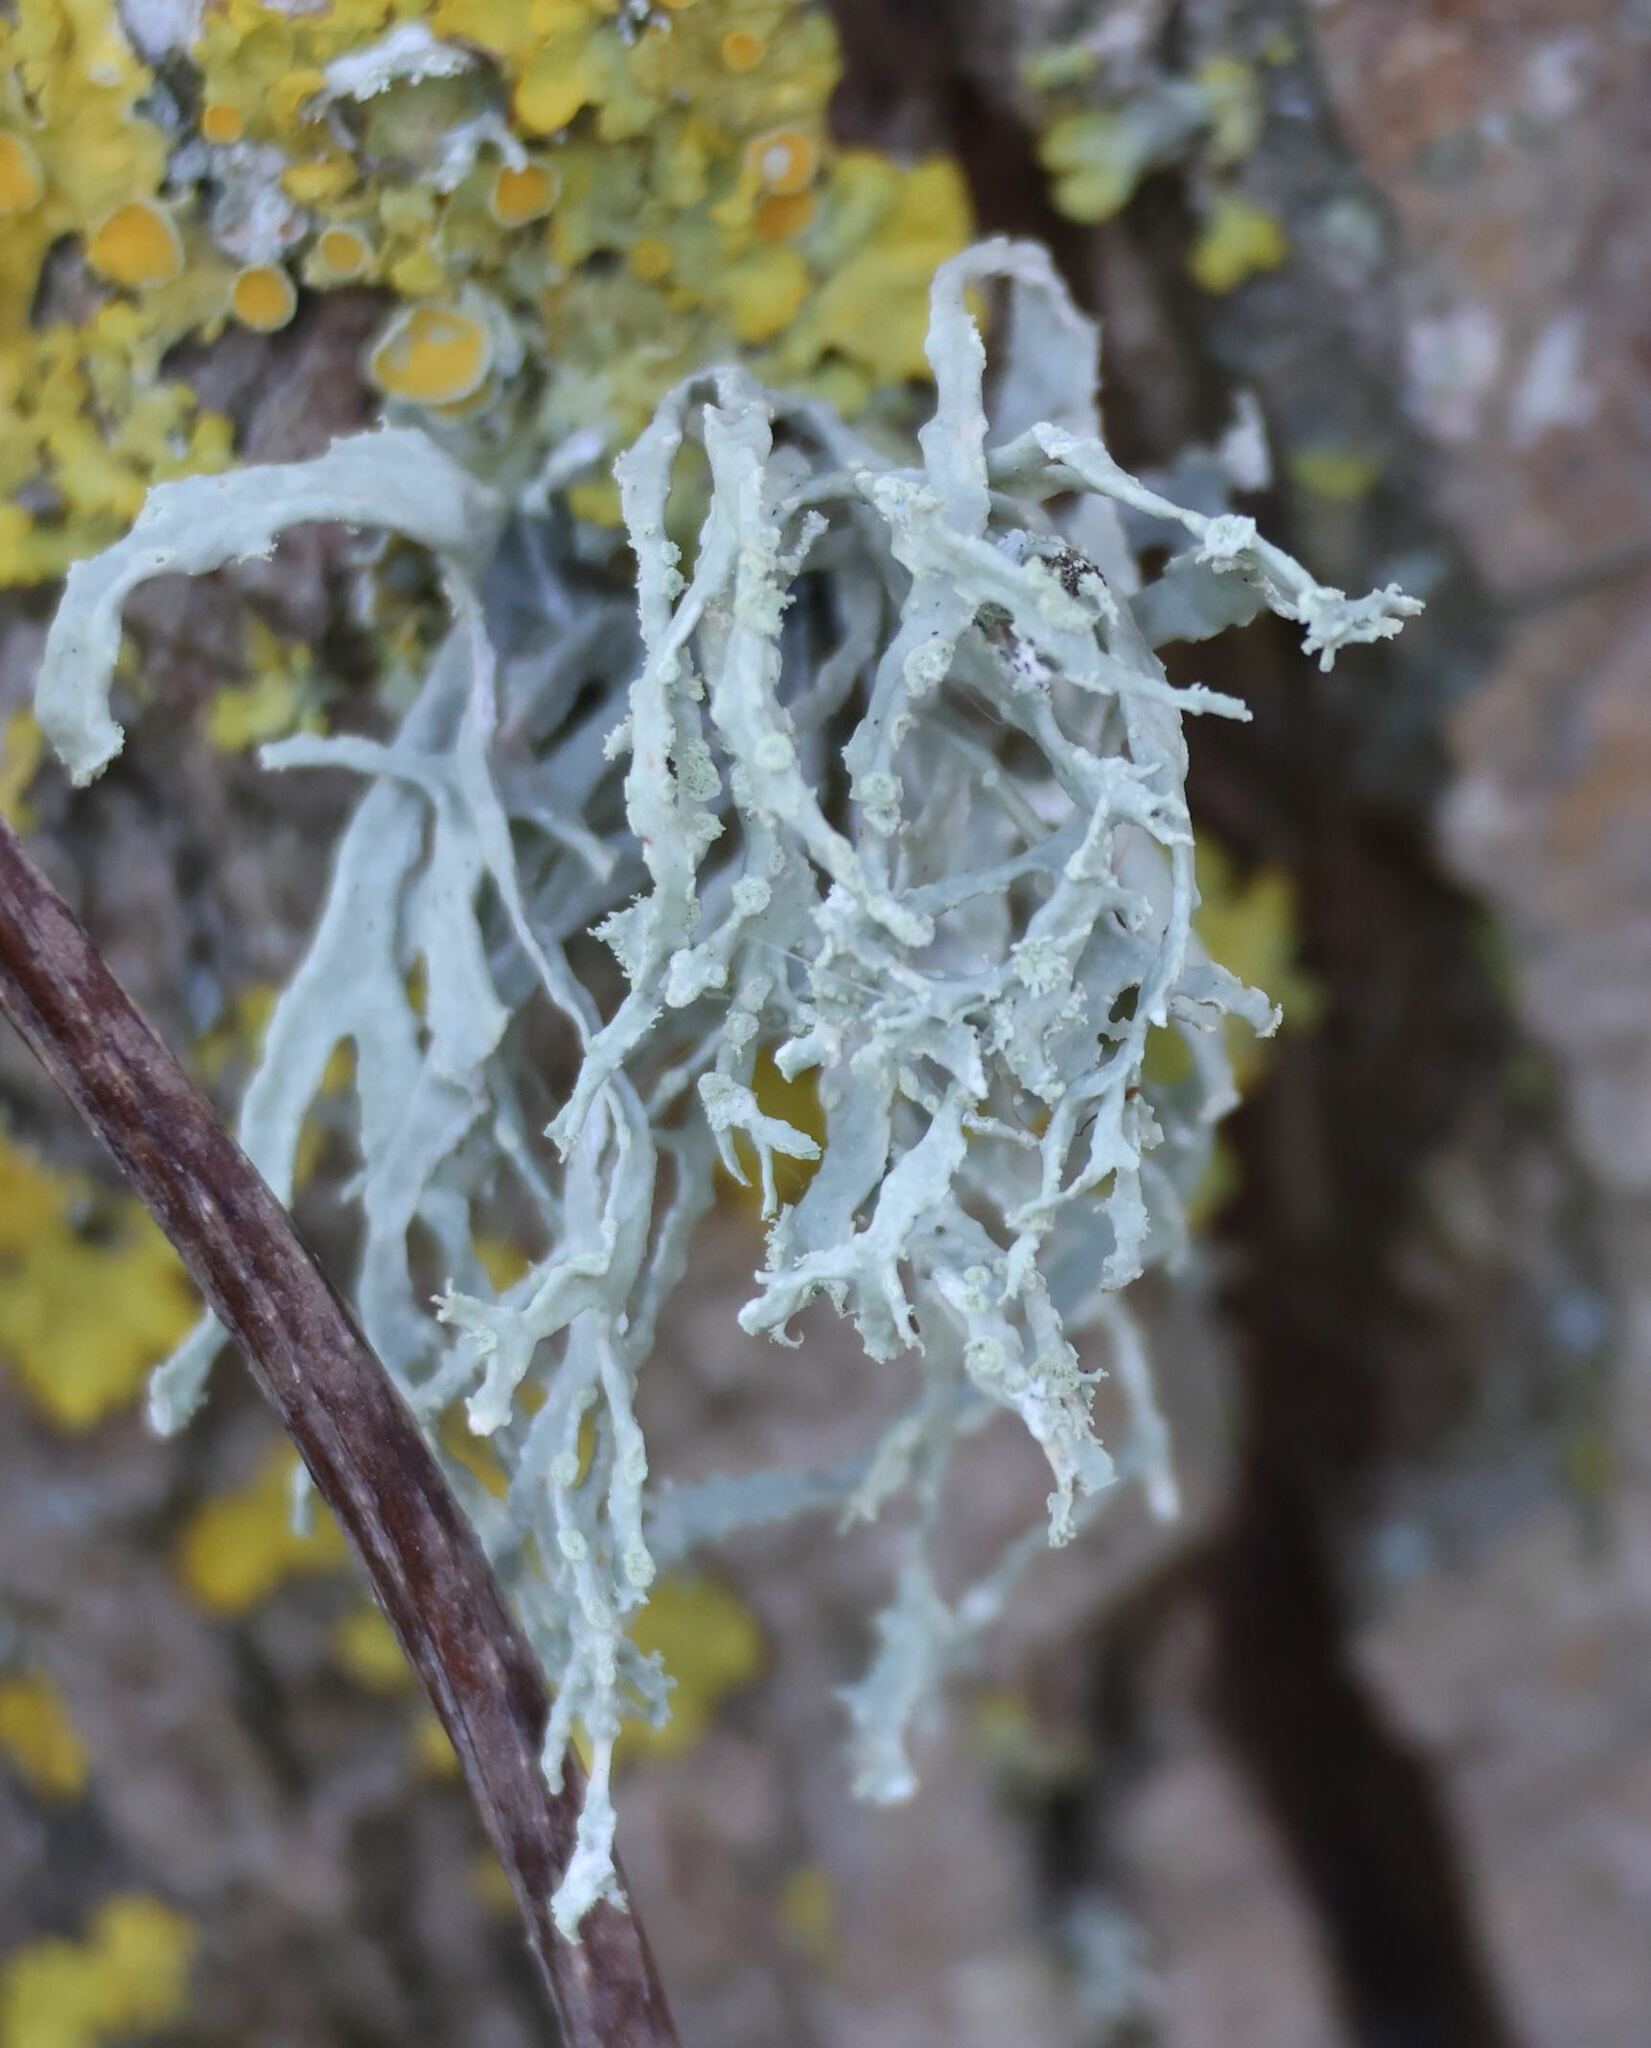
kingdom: Fungi
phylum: Ascomycota
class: Lecanoromycetes
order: Lecanorales
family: Ramalinaceae
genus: Ramalina
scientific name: Ramalina farinacea
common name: Farinose cartilage lichen
